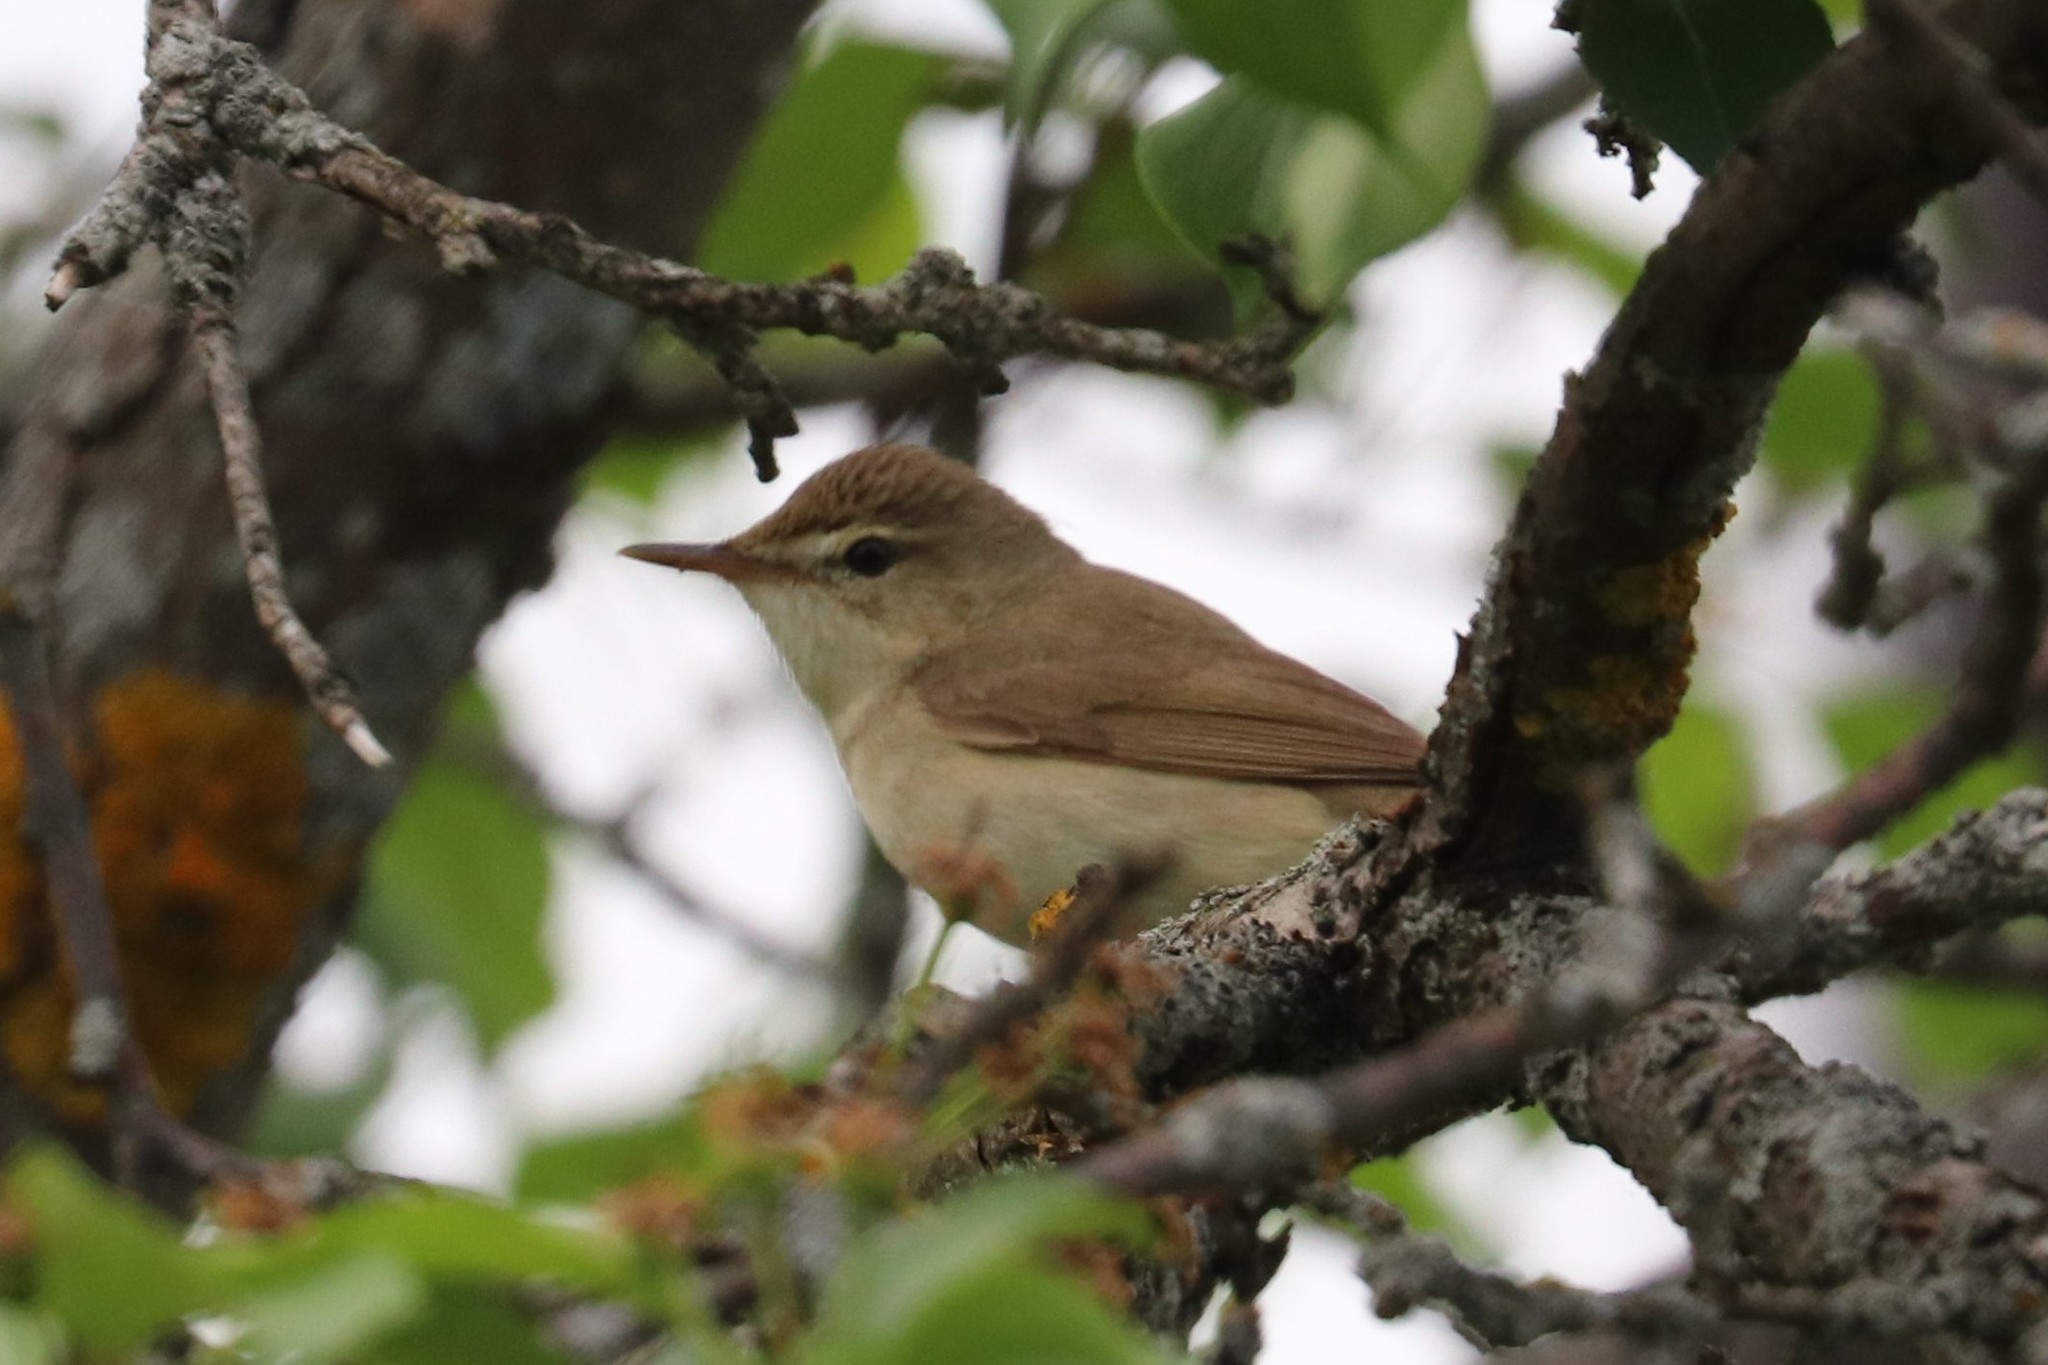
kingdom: Animalia
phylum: Chordata
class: Aves
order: Passeriformes
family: Acrocephalidae
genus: Acrocephalus
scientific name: Acrocephalus dumetorum
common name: Blyth's reed warbler
